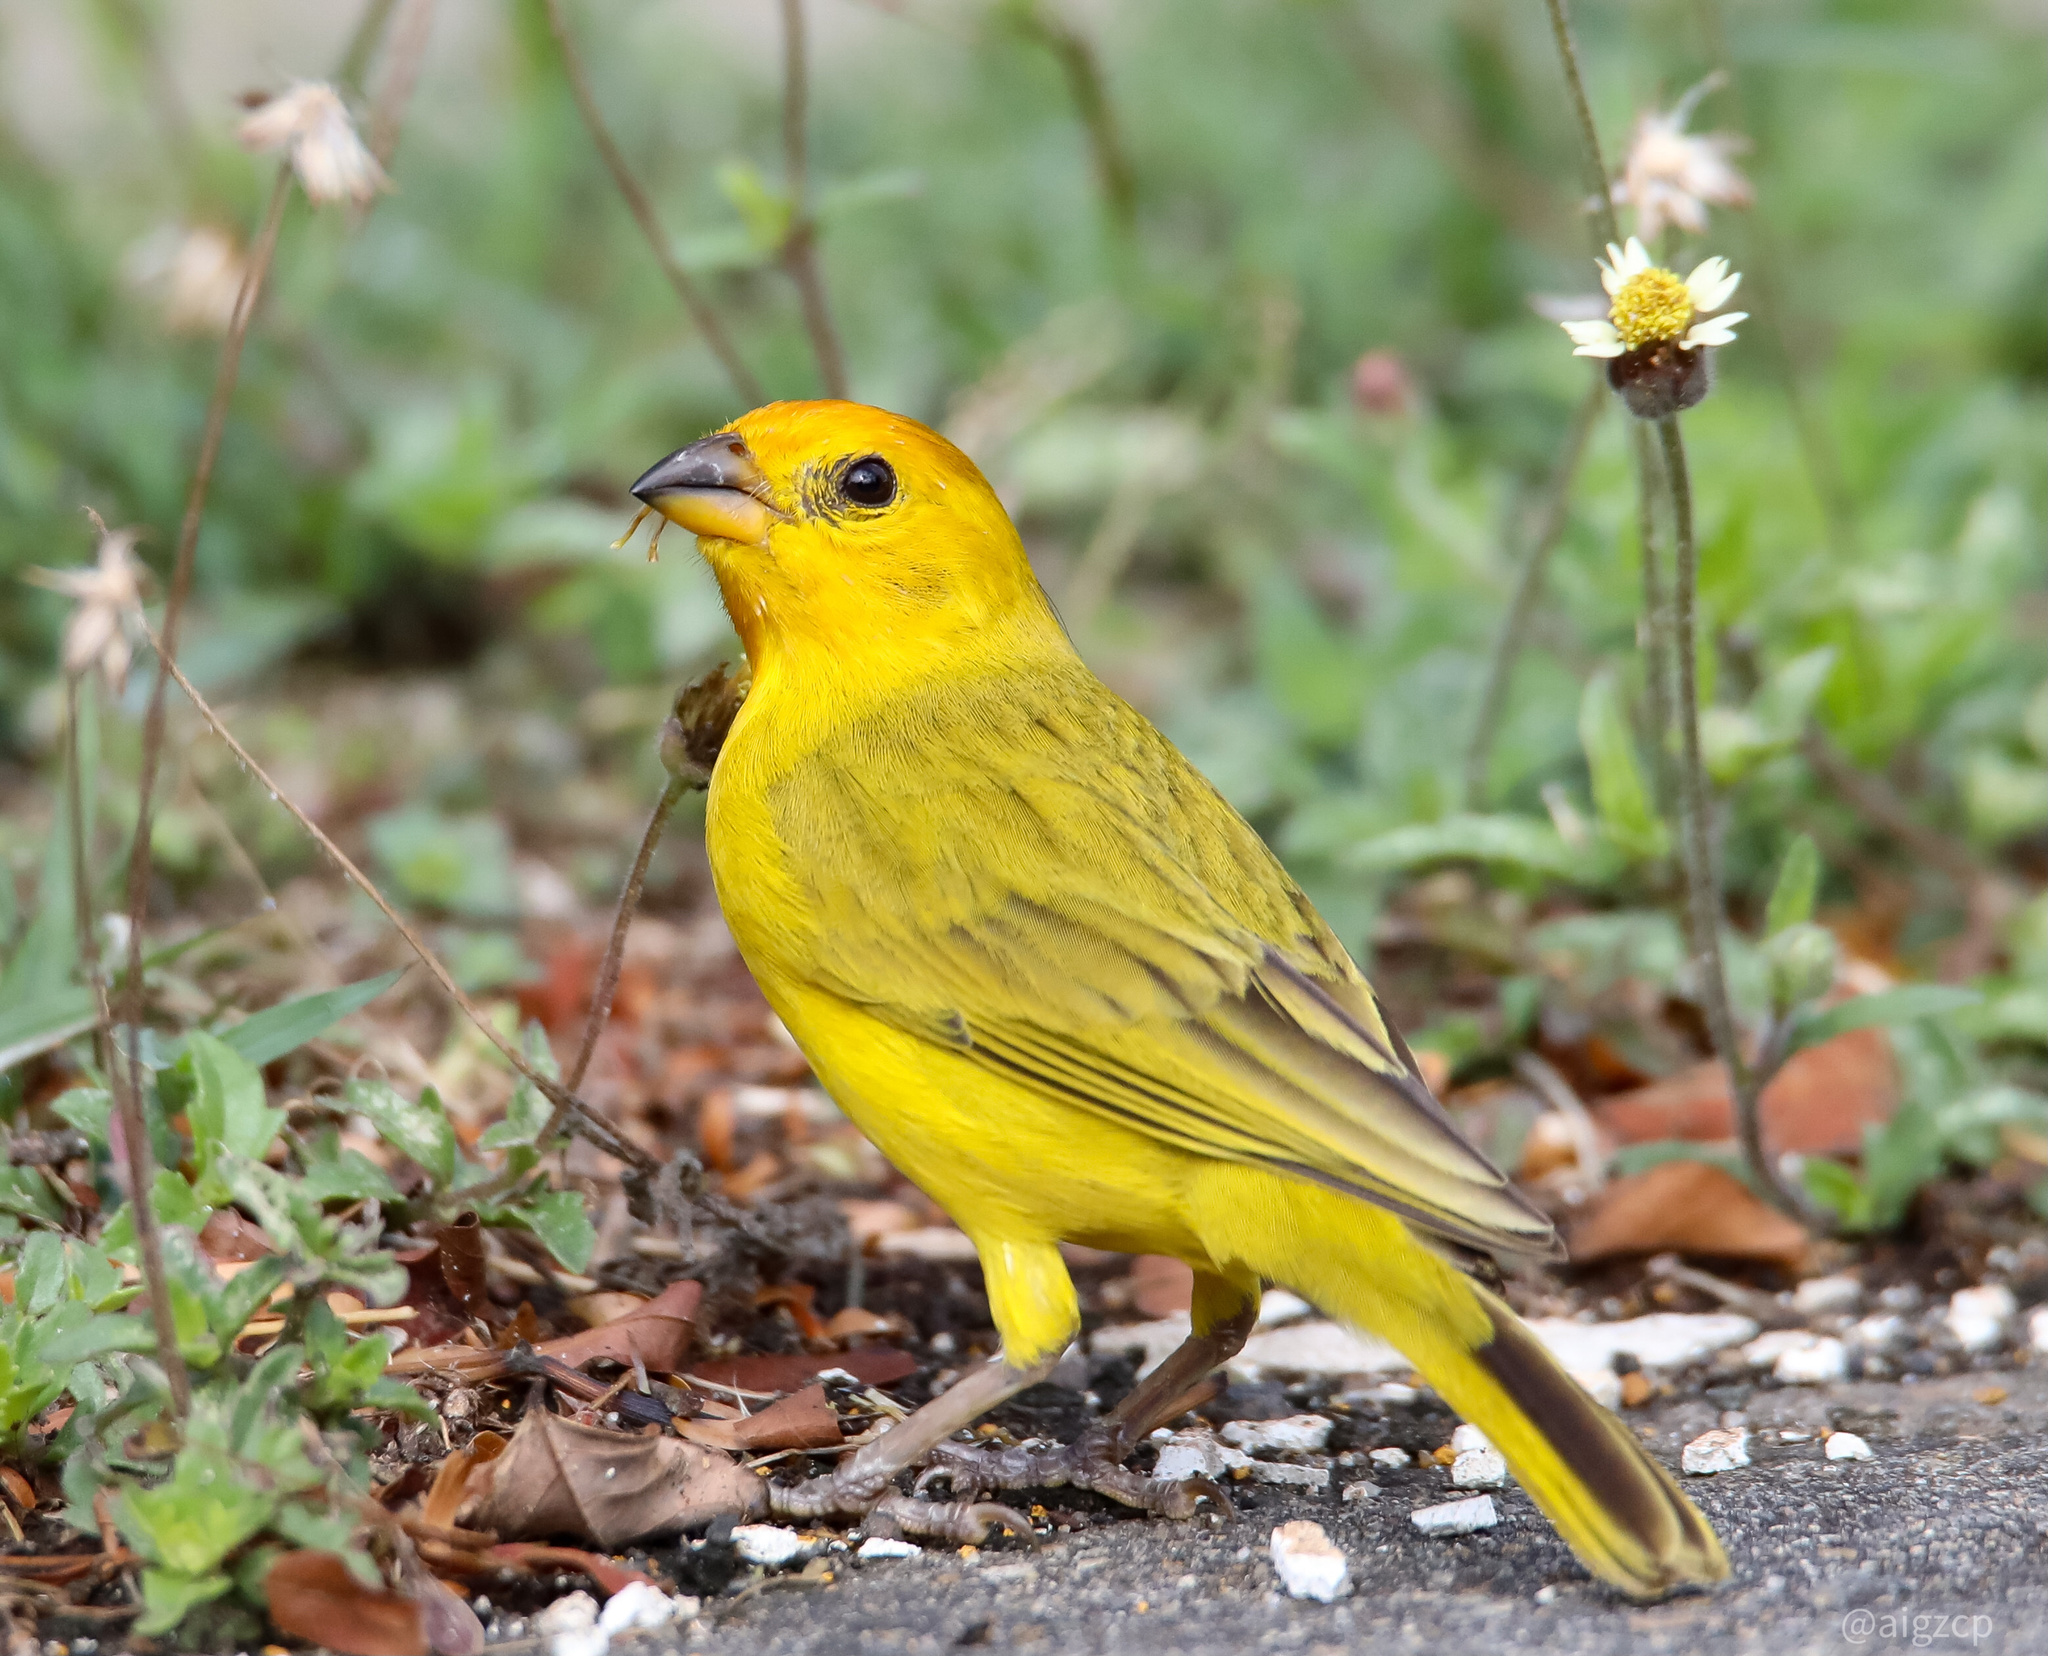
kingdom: Animalia
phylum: Chordata
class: Aves
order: Passeriformes
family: Thraupidae
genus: Sicalis
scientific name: Sicalis flaveola
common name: Saffron finch
